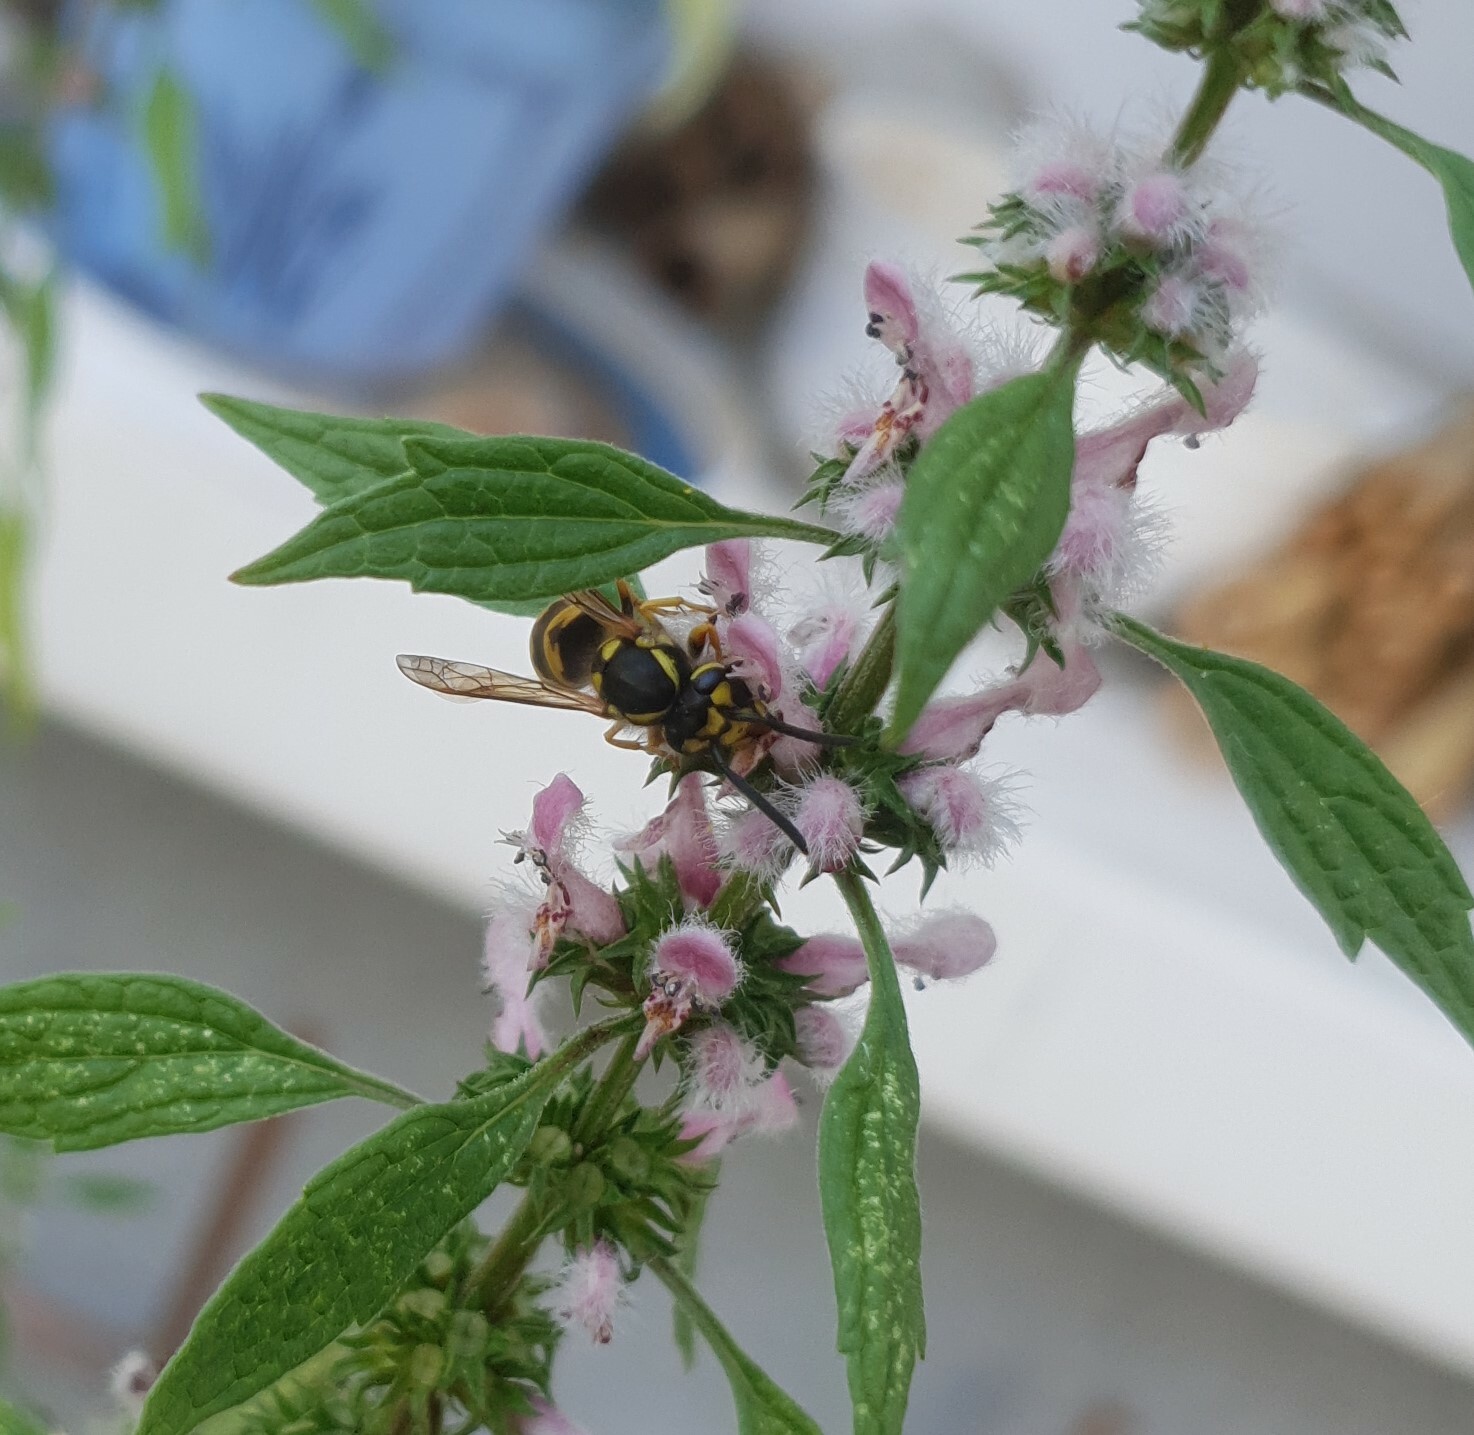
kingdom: Animalia
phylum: Arthropoda
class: Insecta
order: Hymenoptera
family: Vespidae
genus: Vespula
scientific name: Vespula germanica
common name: German wasp
